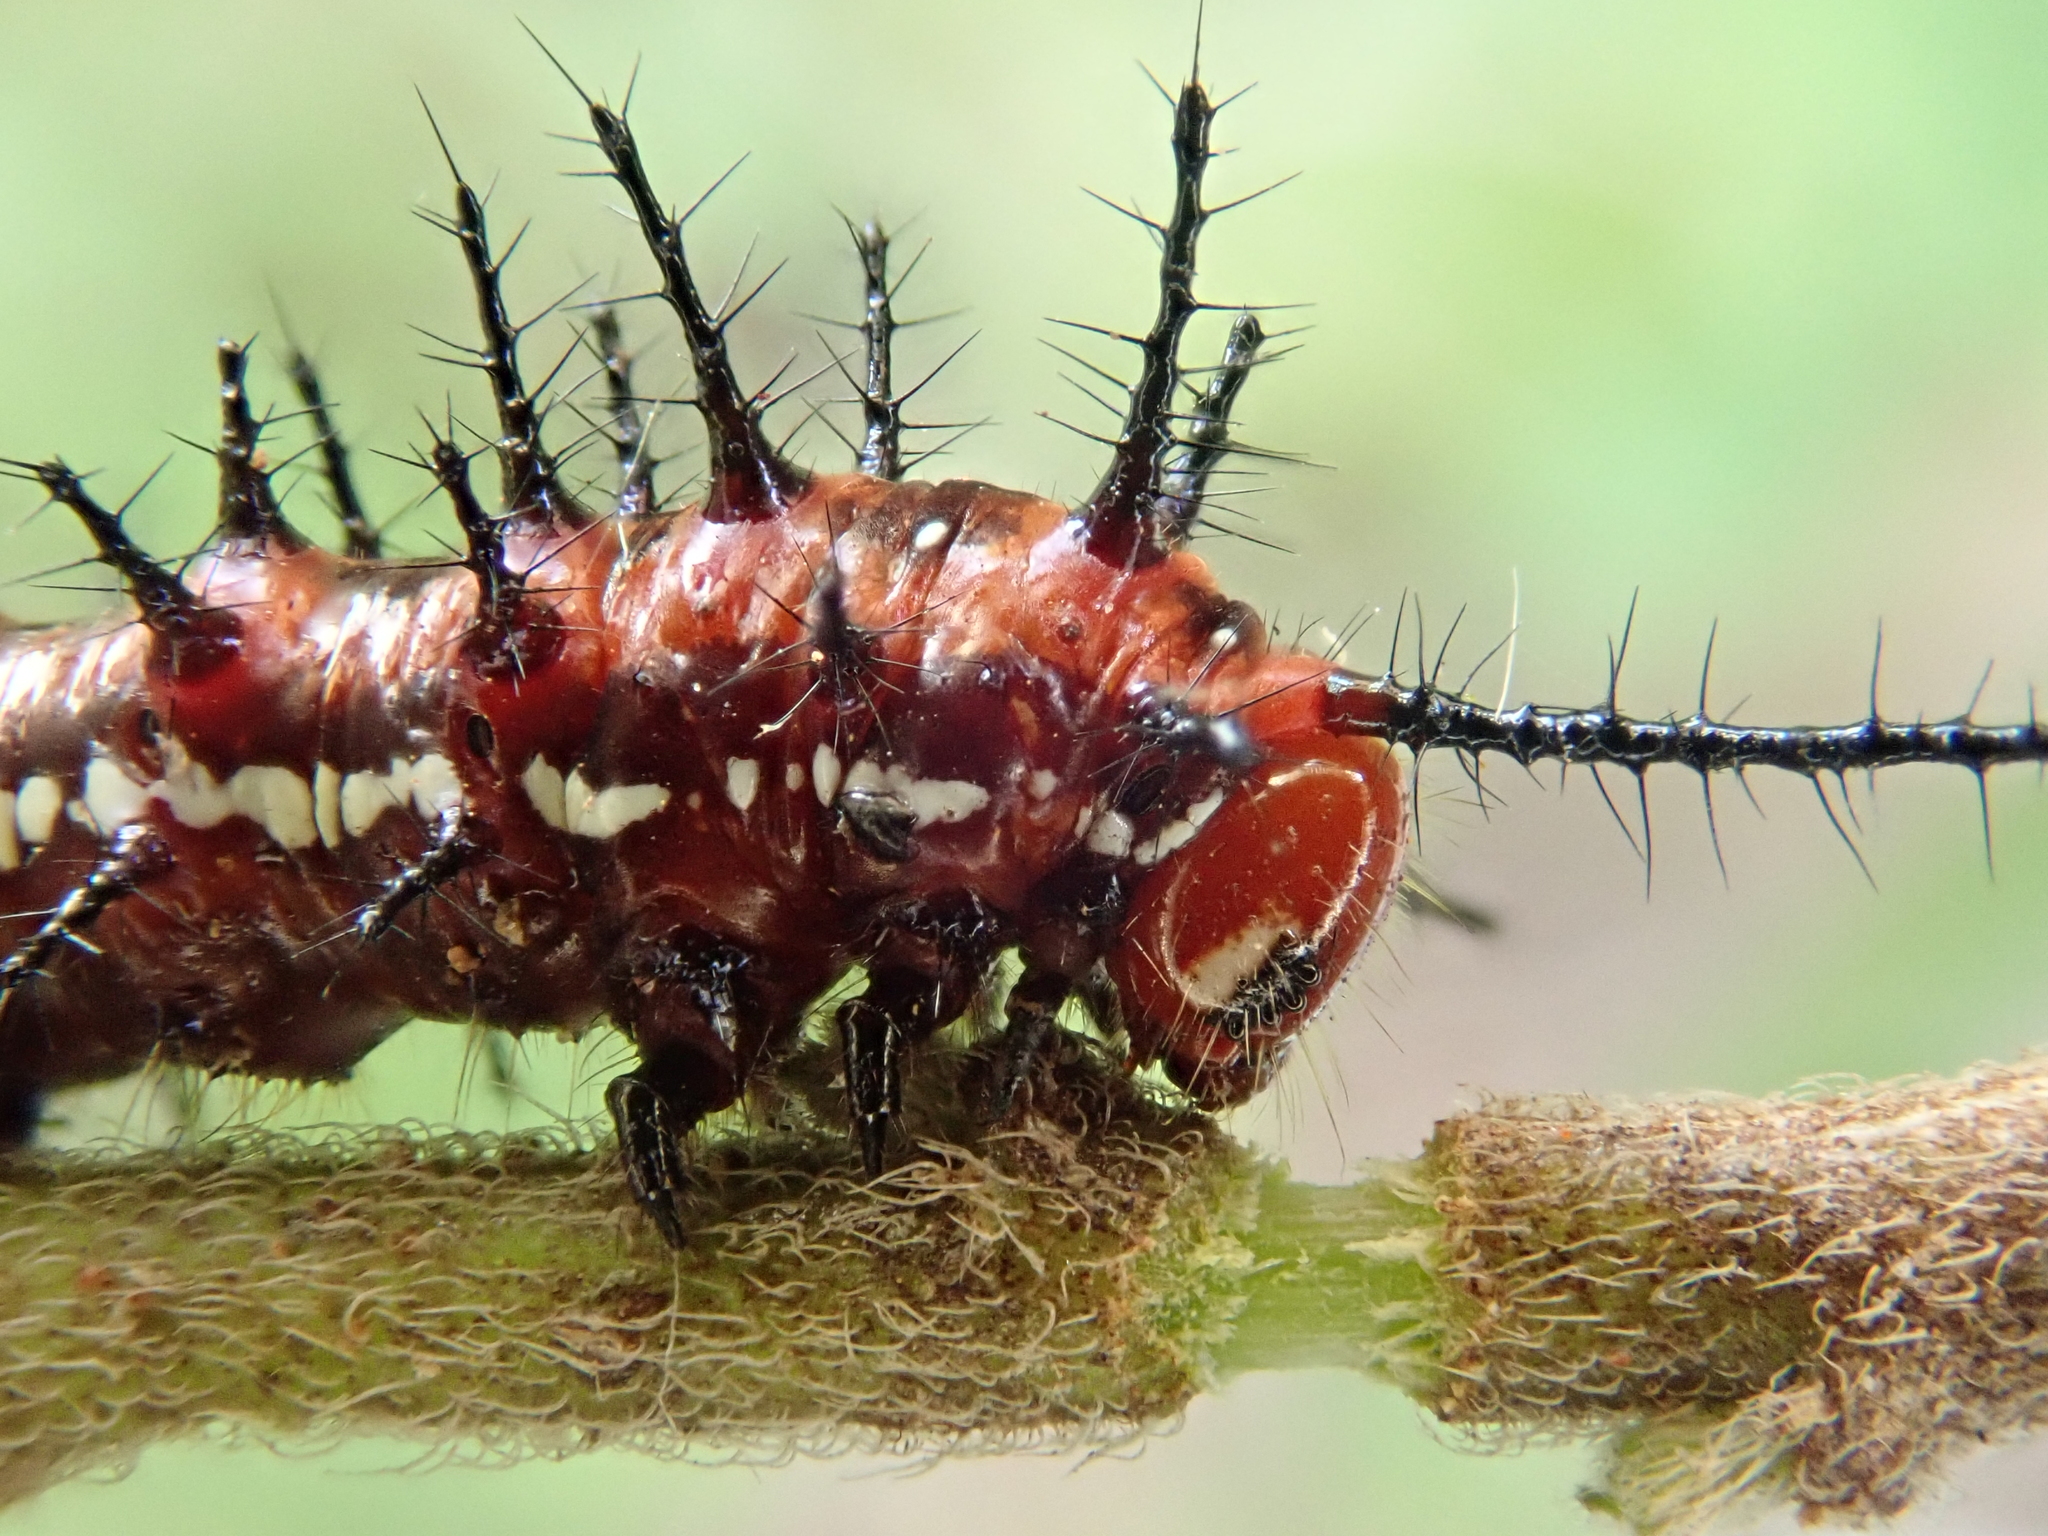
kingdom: Animalia
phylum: Arthropoda
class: Insecta
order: Lepidoptera
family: Nymphalidae
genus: Euptoieta
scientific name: Euptoieta hegesia
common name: Mexican fritillary
